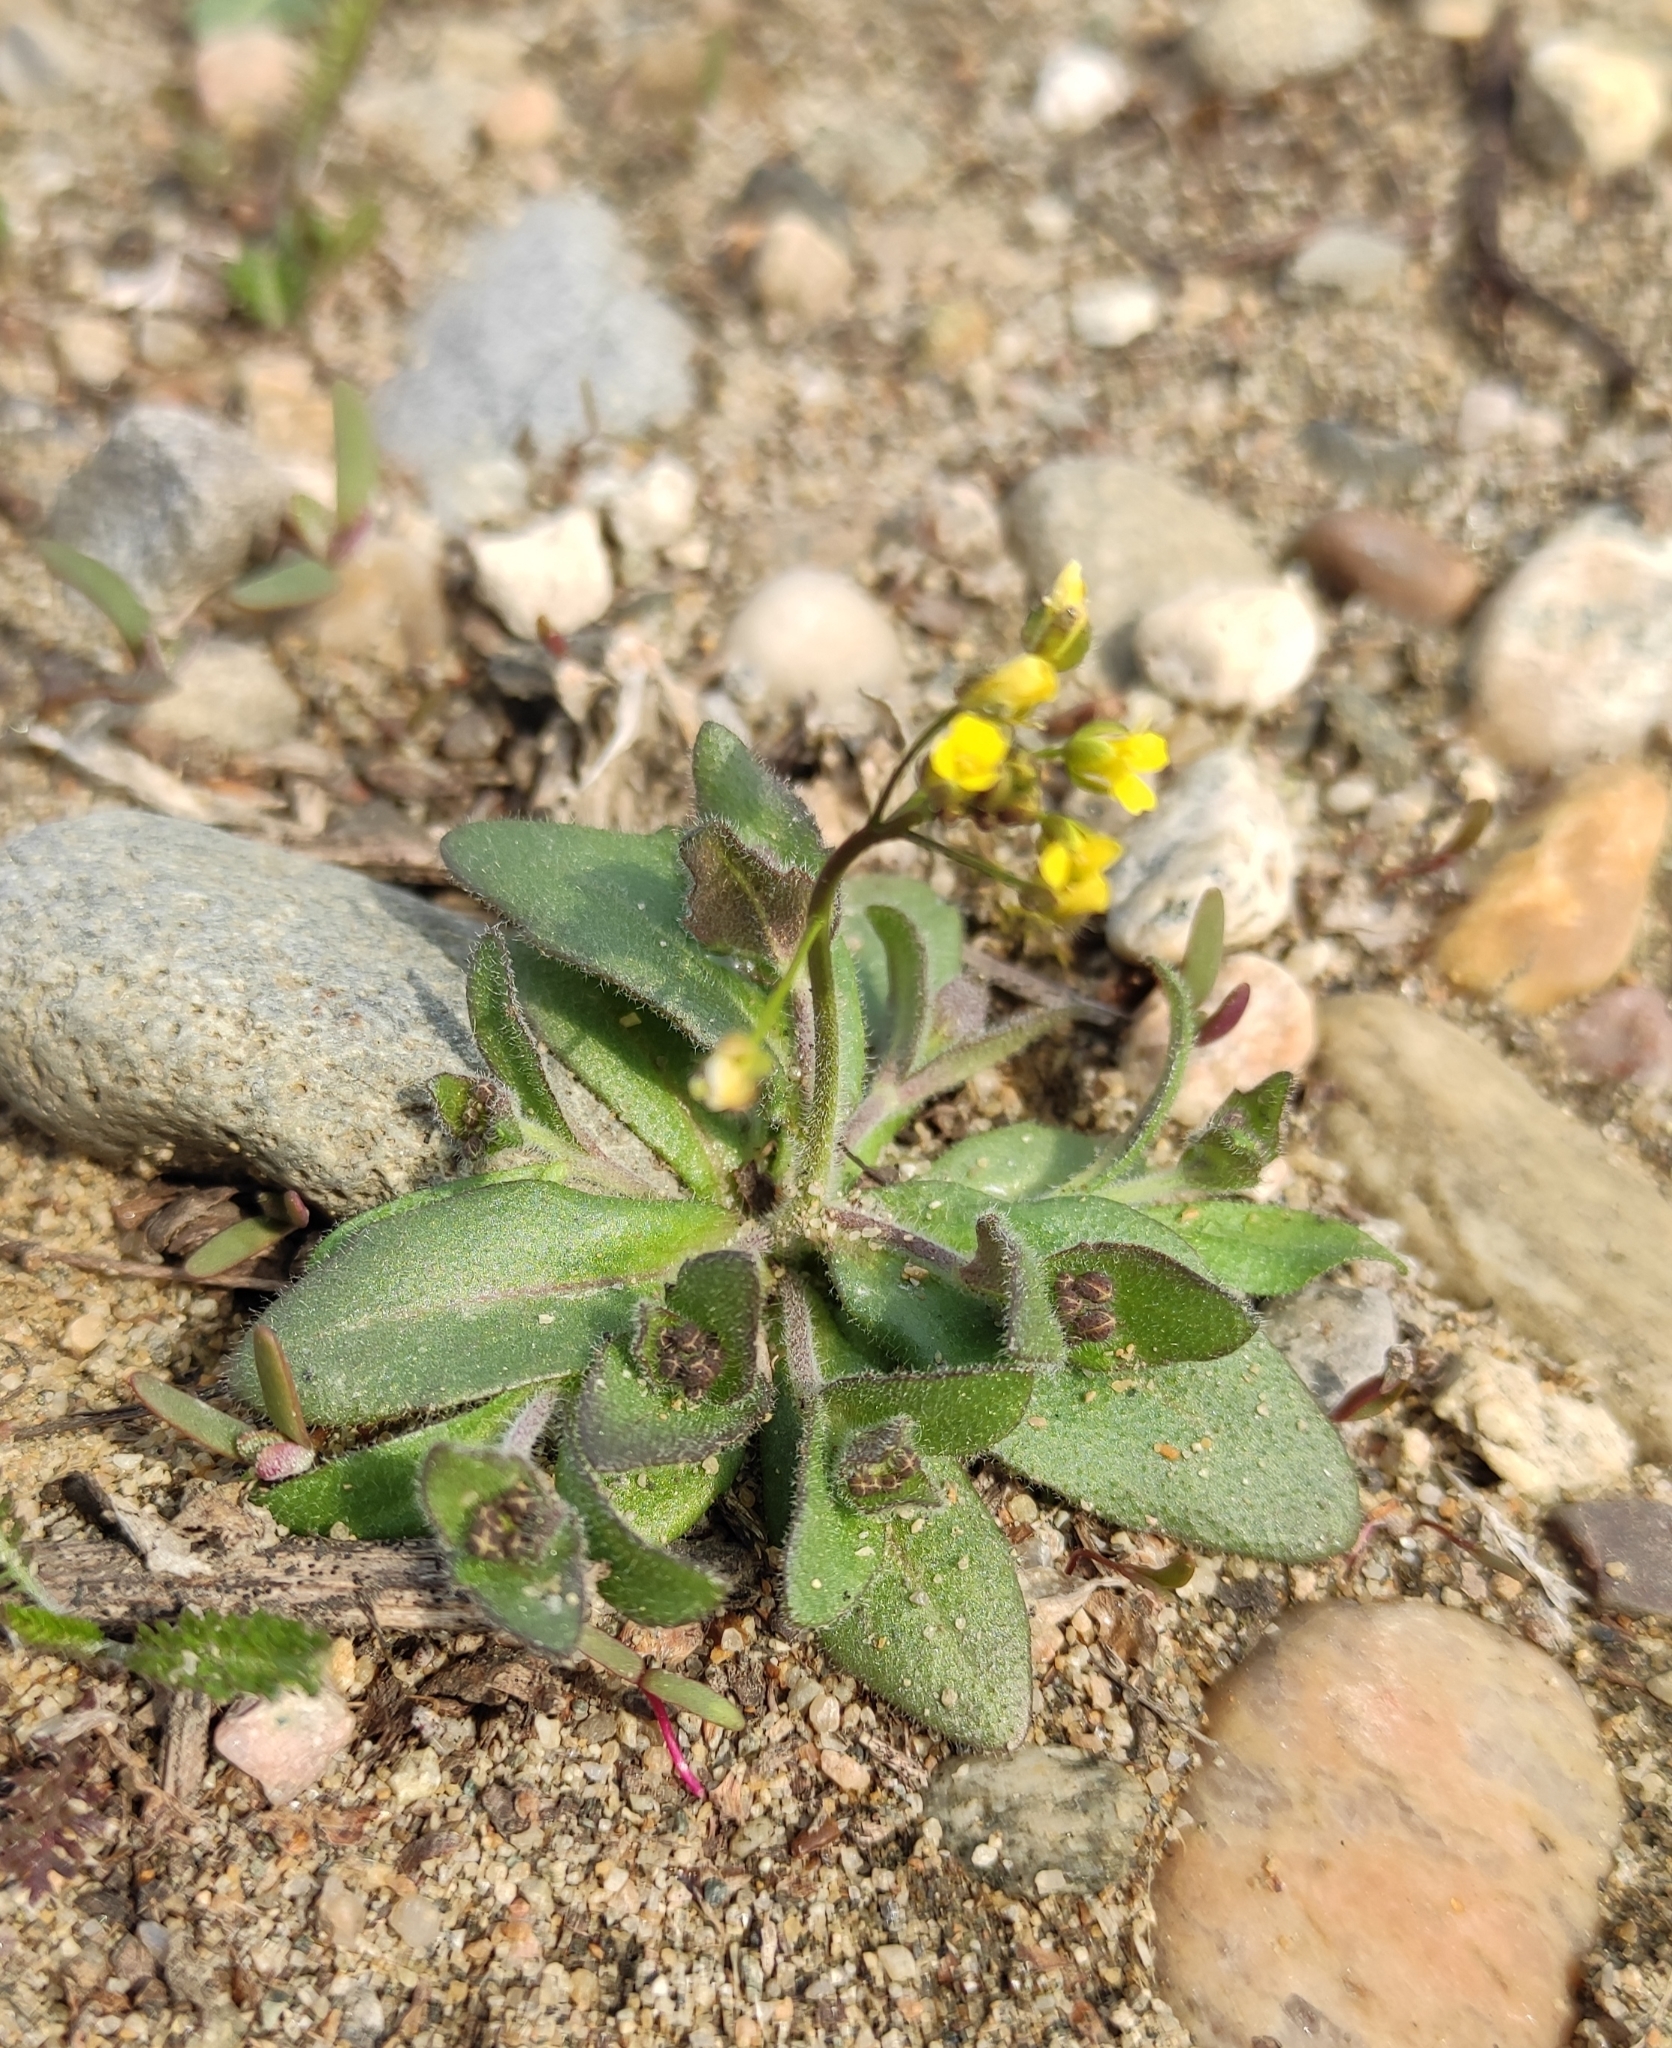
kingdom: Plantae
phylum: Tracheophyta
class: Magnoliopsida
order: Brassicales
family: Brassicaceae
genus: Draba
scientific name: Draba nemorosa
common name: Wood whitlow-grass
